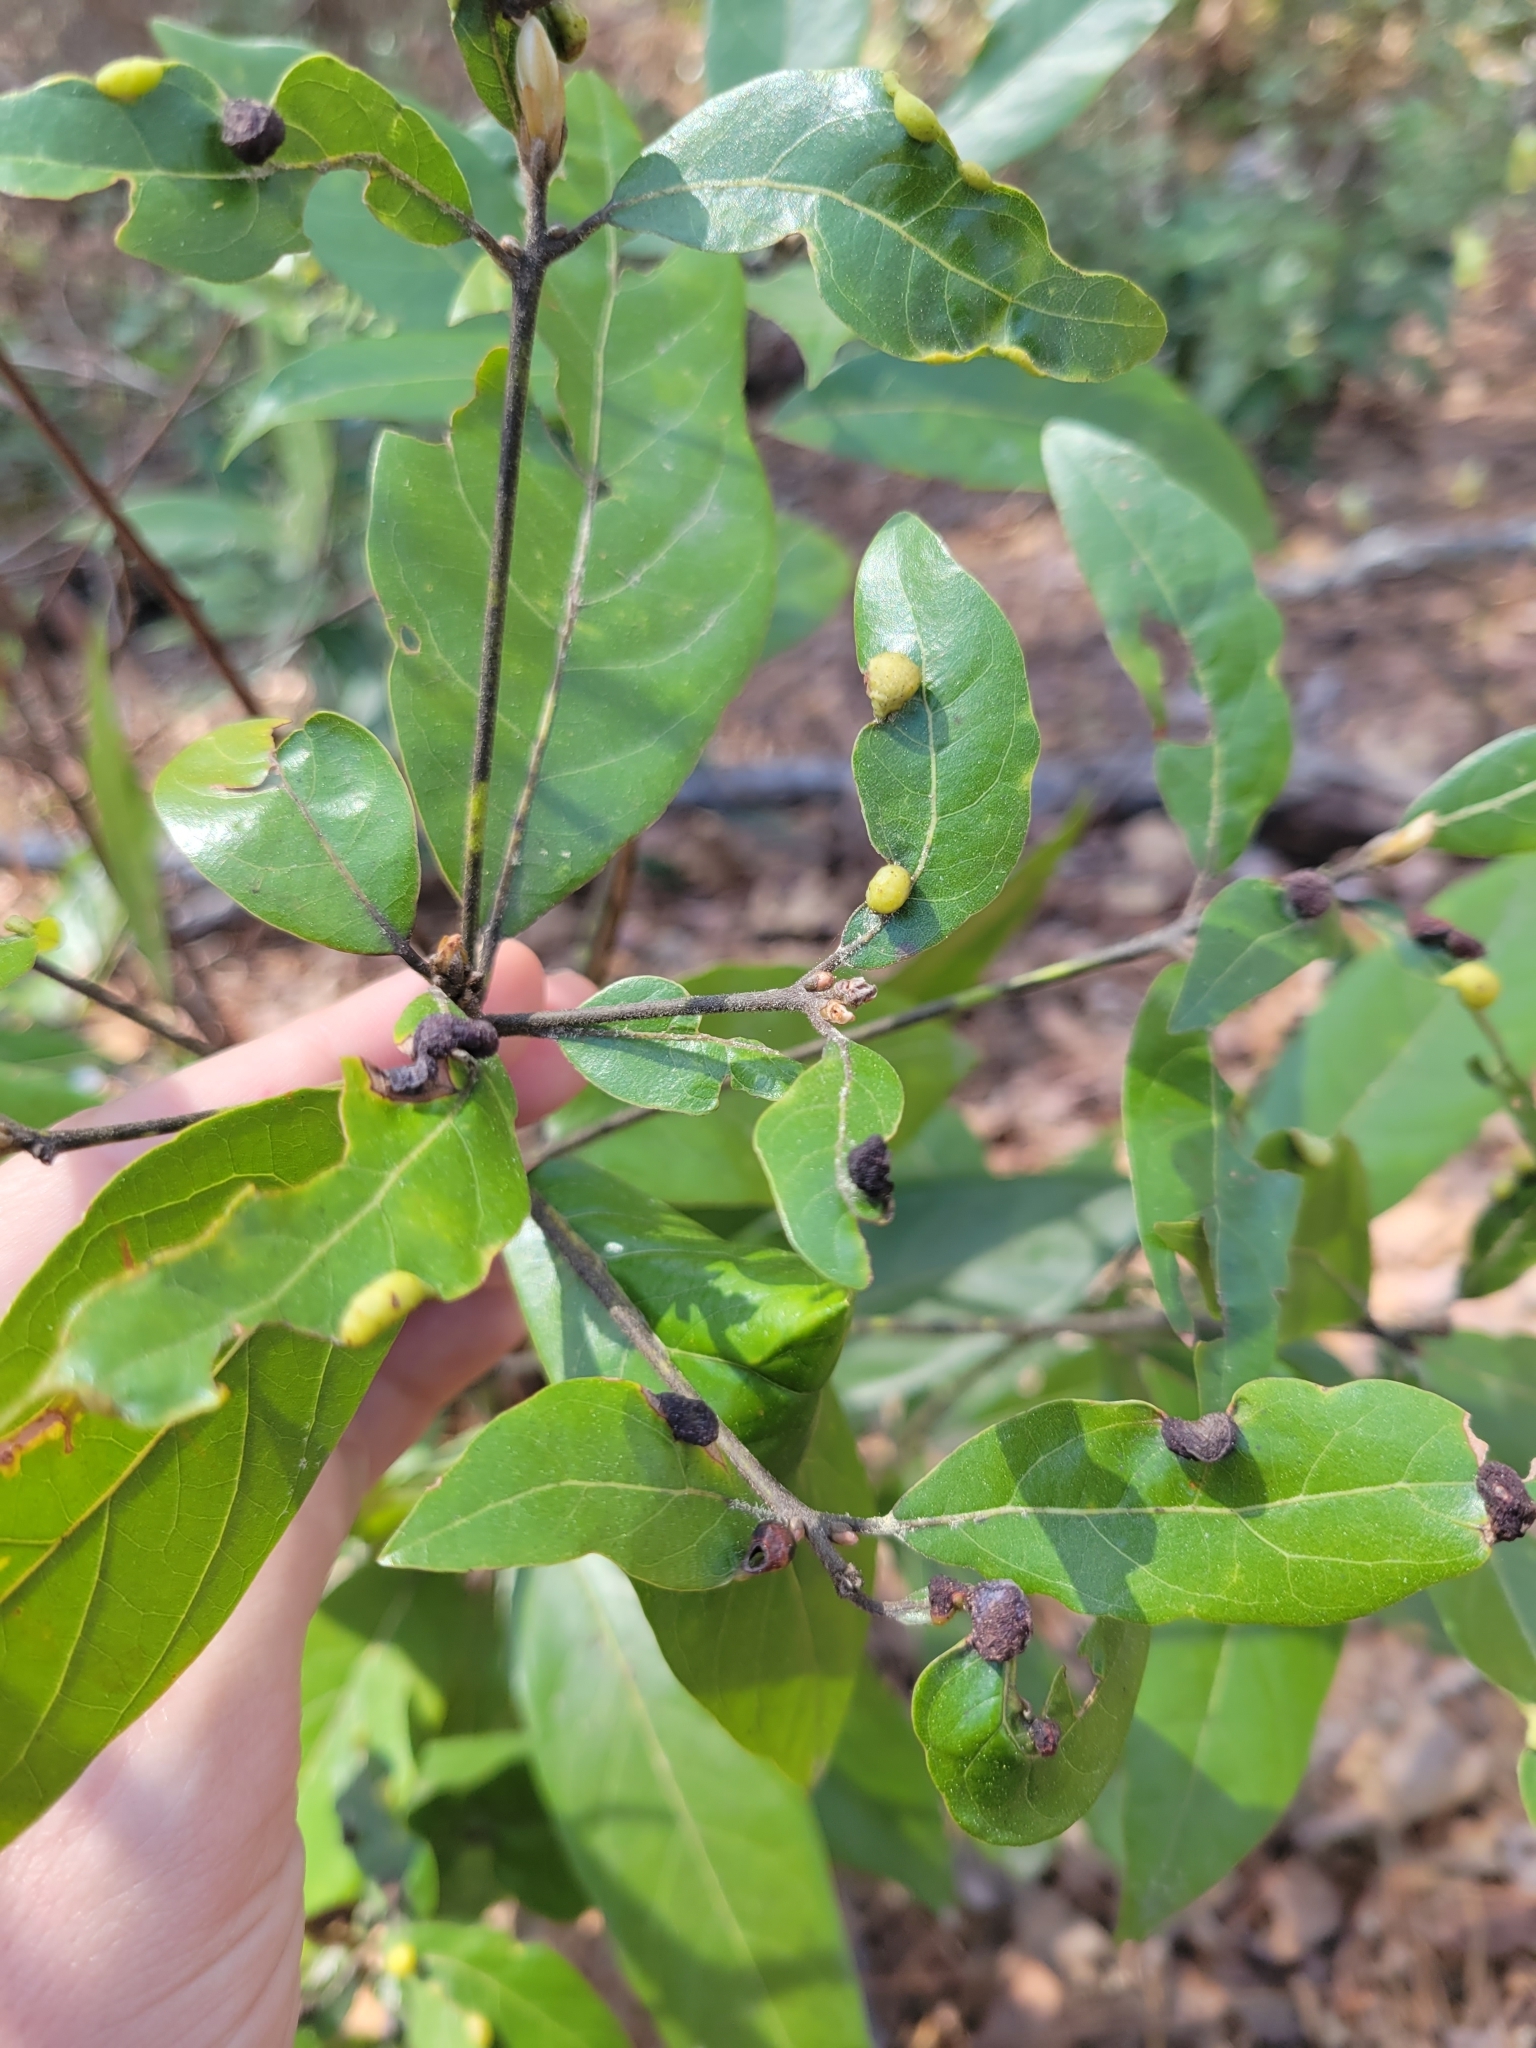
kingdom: Animalia
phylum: Arthropoda
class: Insecta
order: Hemiptera
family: Triozidae
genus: Trioza
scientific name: Trioza magnoliae
